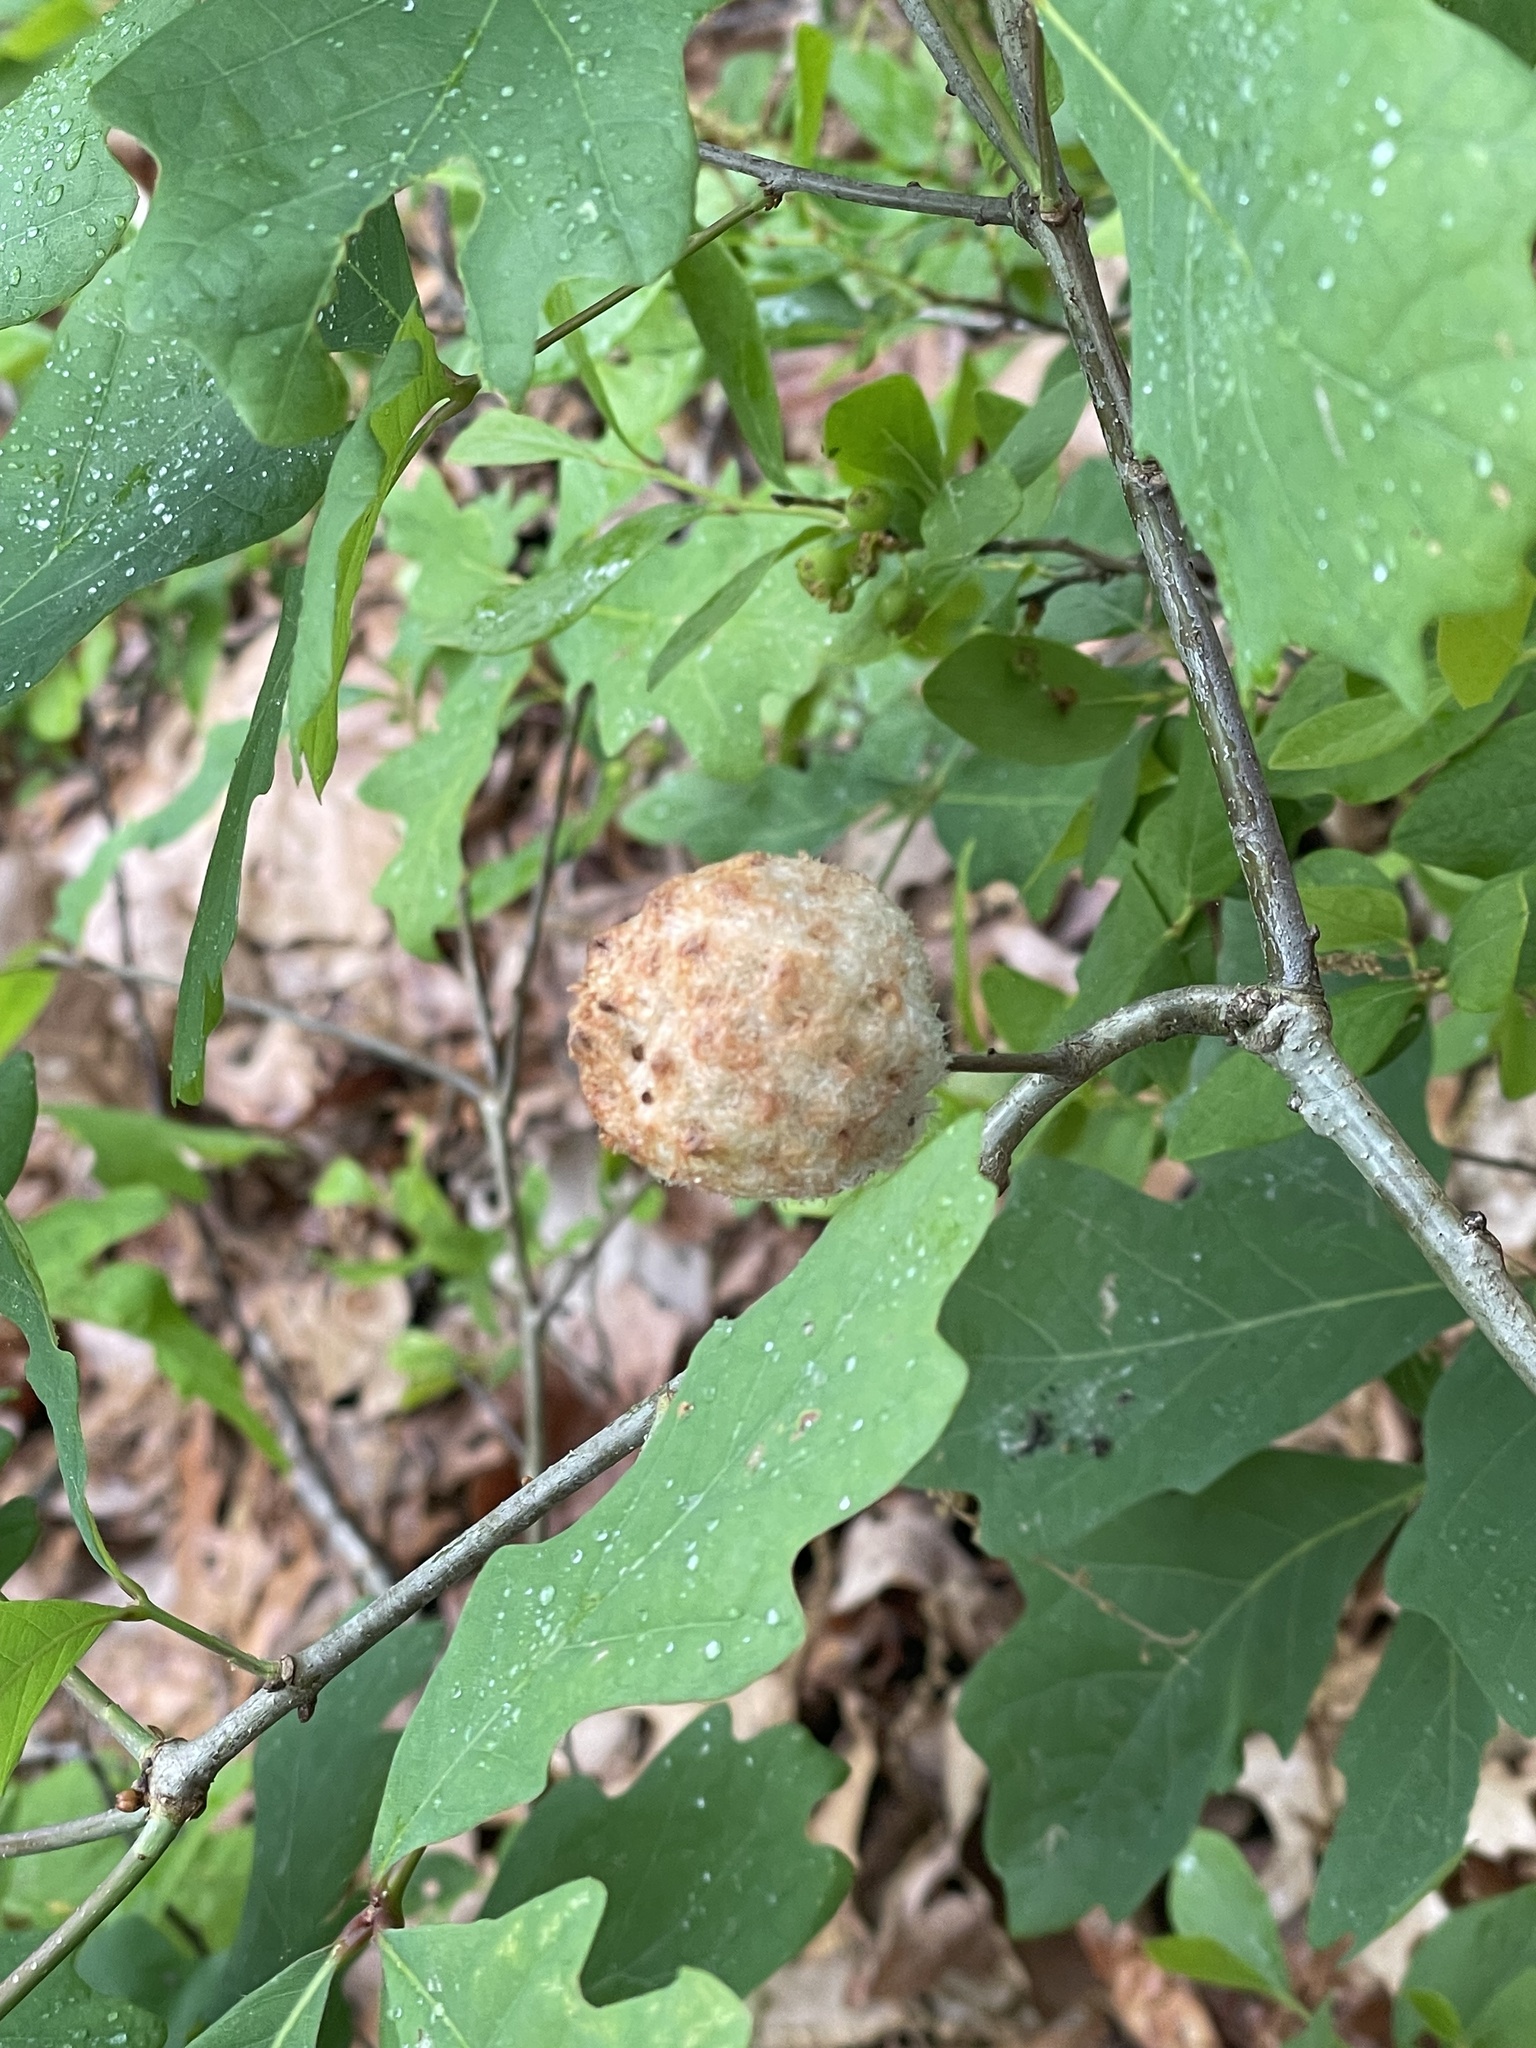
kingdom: Animalia
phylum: Arthropoda
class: Insecta
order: Hymenoptera
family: Cynipidae
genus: Callirhytis
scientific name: Callirhytis
